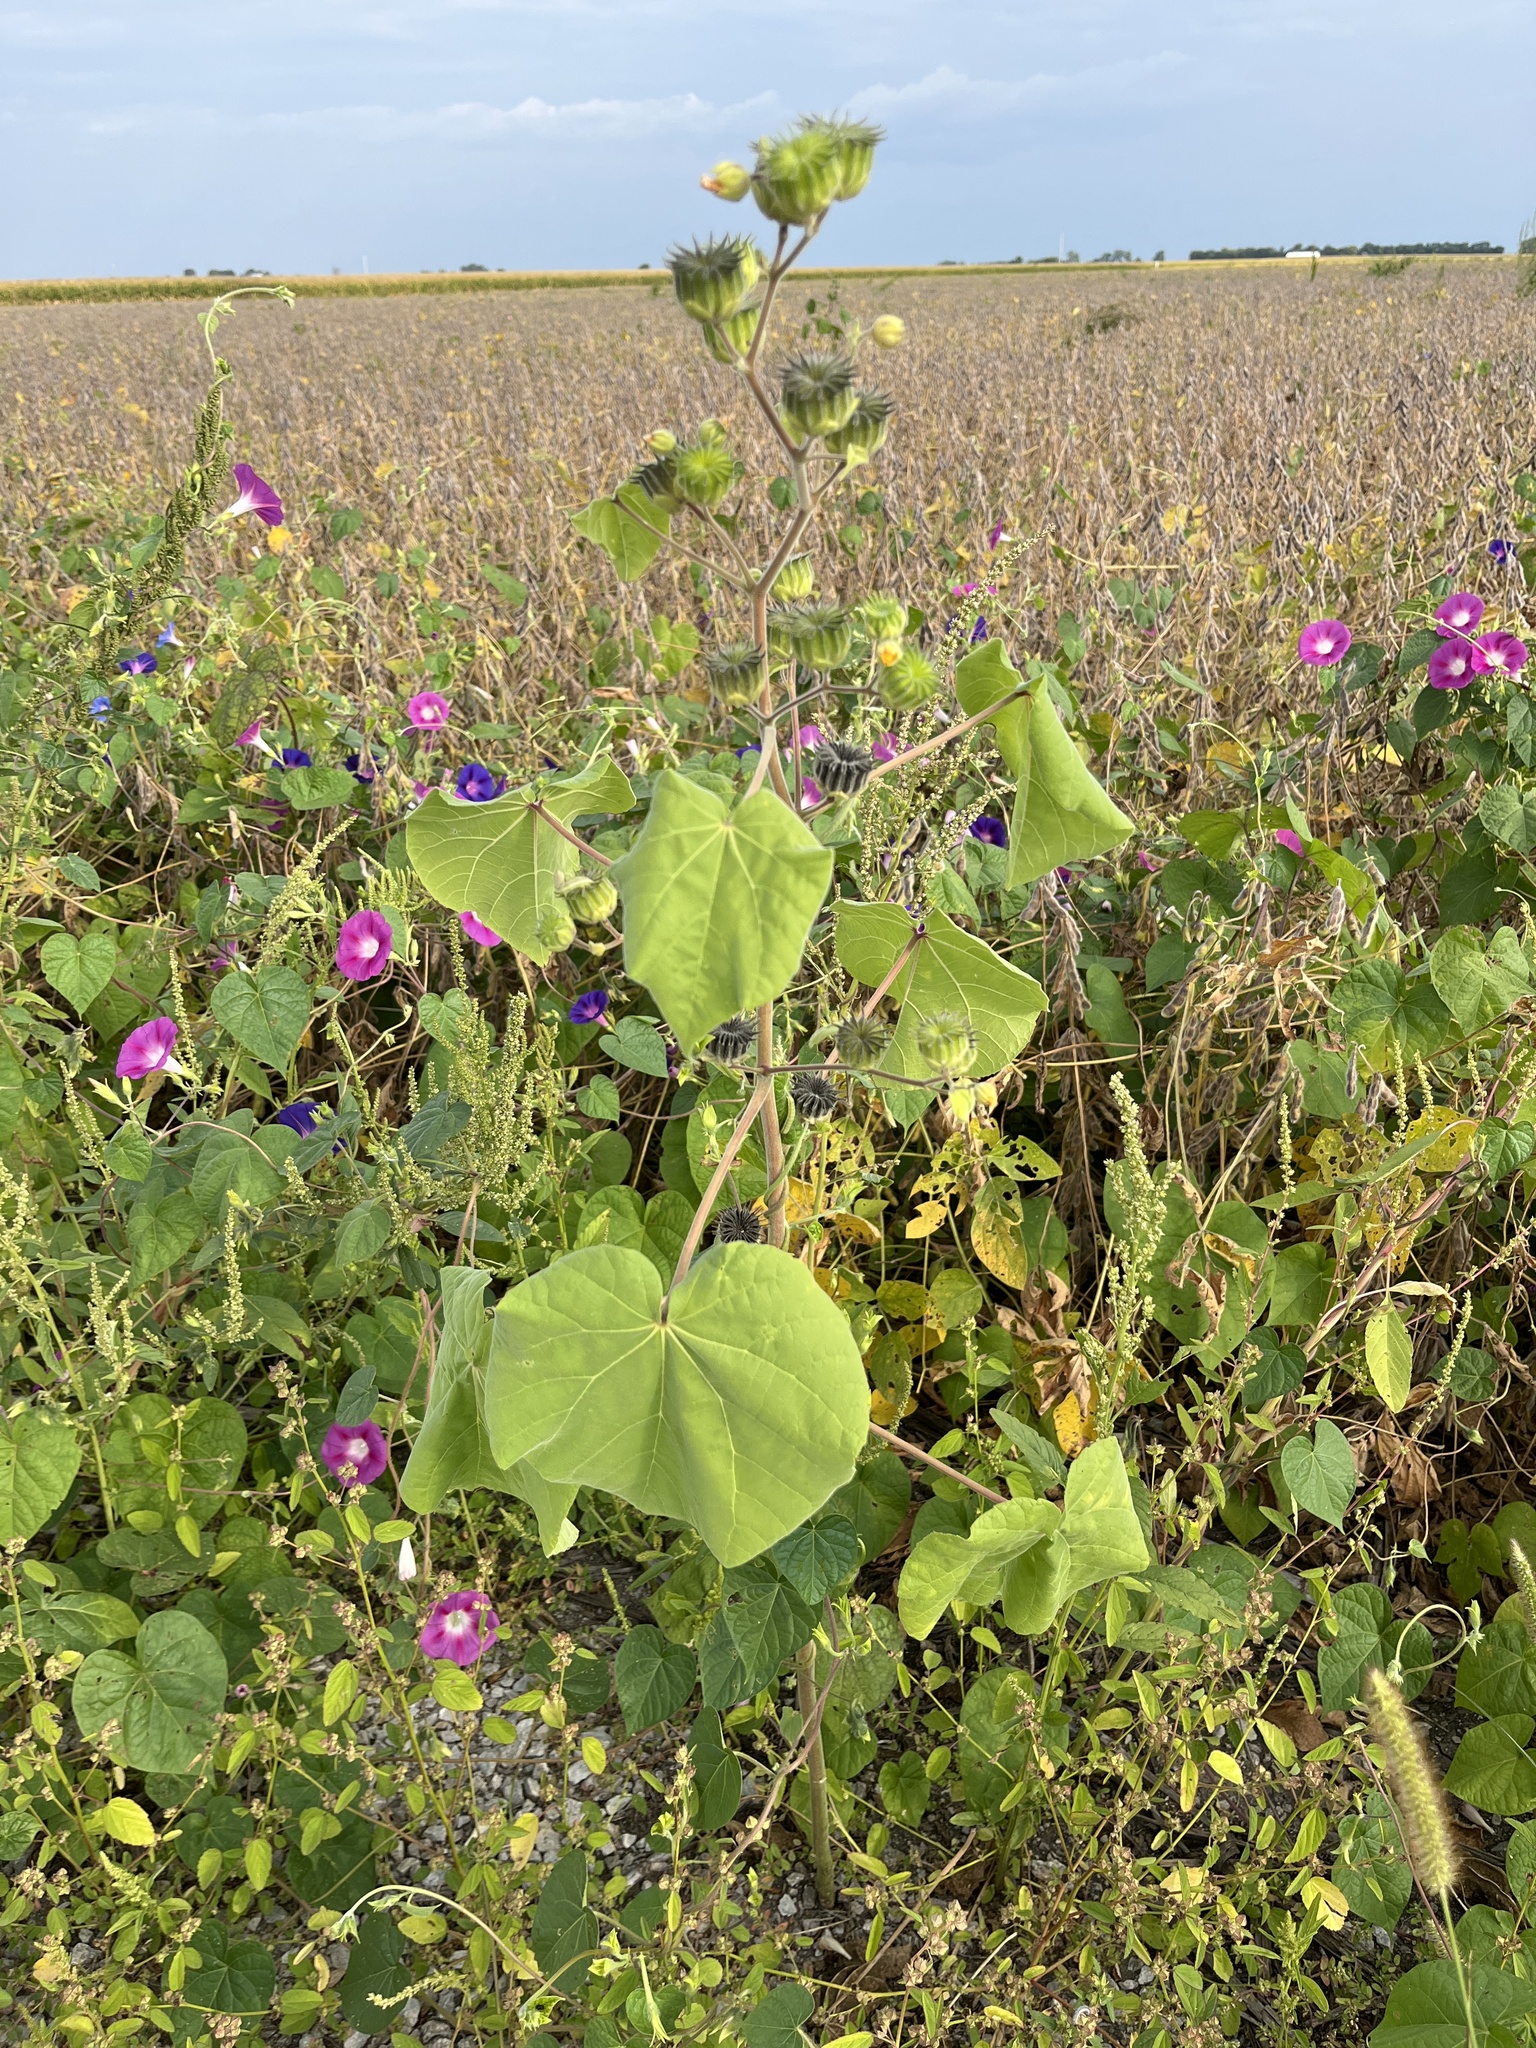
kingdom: Plantae
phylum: Tracheophyta
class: Magnoliopsida
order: Malvales
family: Malvaceae
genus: Abutilon
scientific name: Abutilon theophrasti
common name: Velvetleaf
